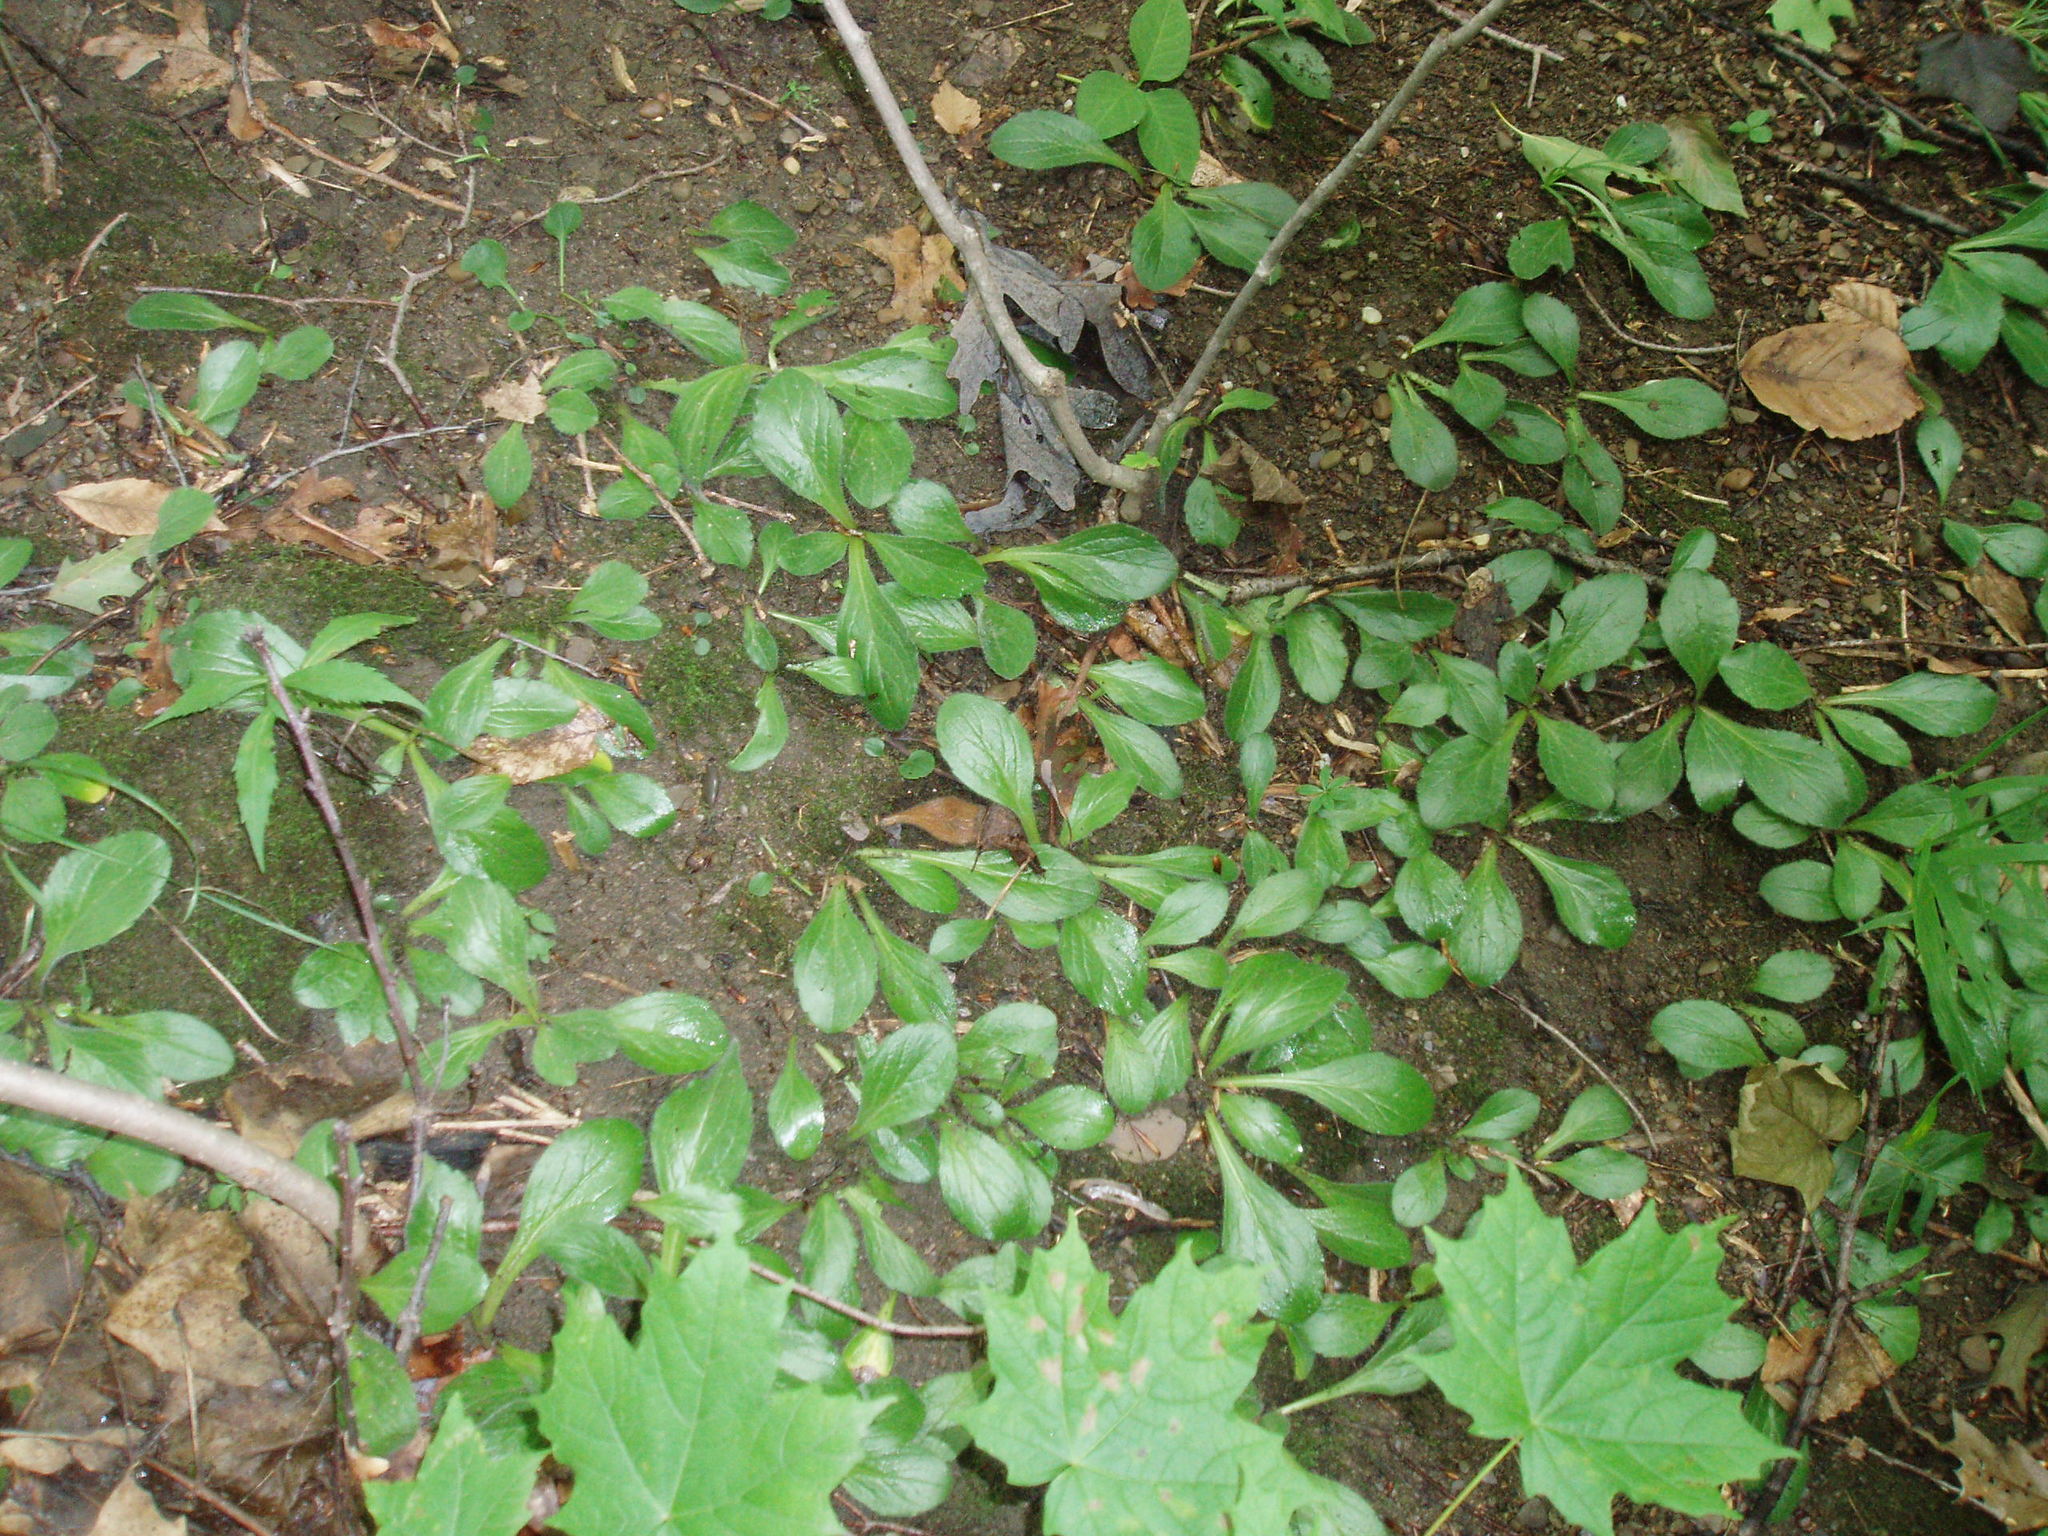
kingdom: Plantae
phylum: Tracheophyta
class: Magnoliopsida
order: Asterales
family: Asteraceae
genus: Erigeron
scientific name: Erigeron pulchellus
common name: Hairy fleabane
